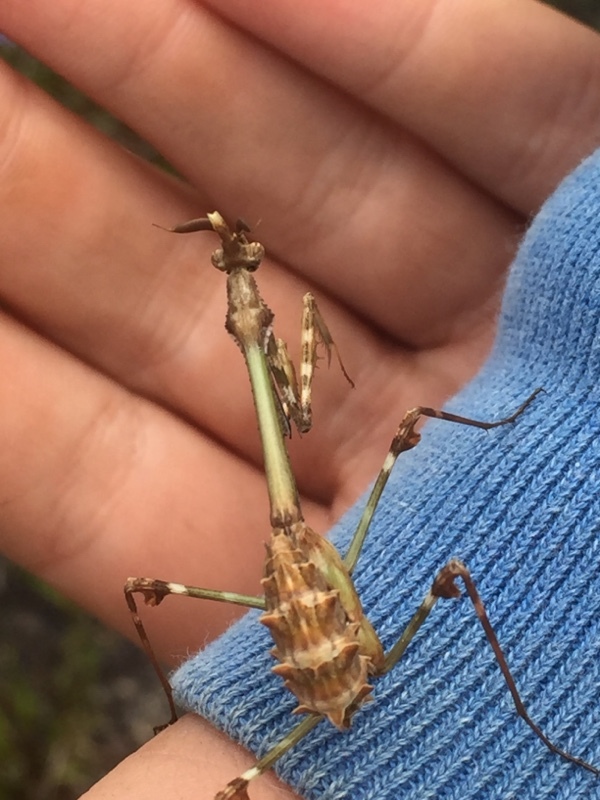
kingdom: Animalia
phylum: Arthropoda
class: Insecta
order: Mantodea
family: Empusidae
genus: Empusa
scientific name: Empusa pennata
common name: Conehead mantis
